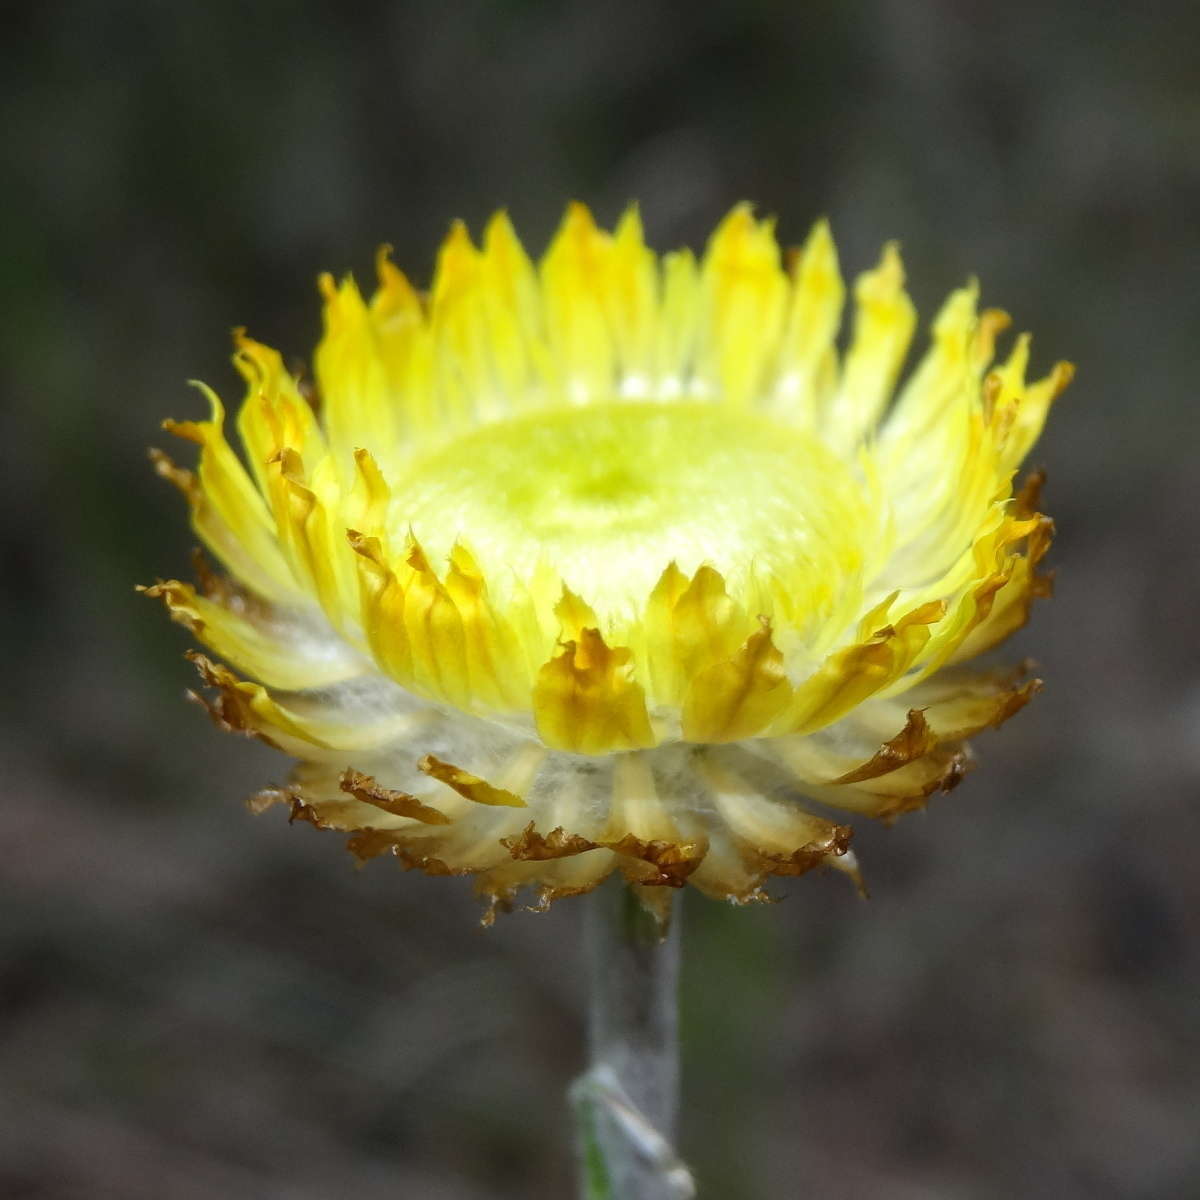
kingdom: Plantae
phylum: Tracheophyta
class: Magnoliopsida
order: Asterales
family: Asteraceae
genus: Coronidium
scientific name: Coronidium scorpioides
